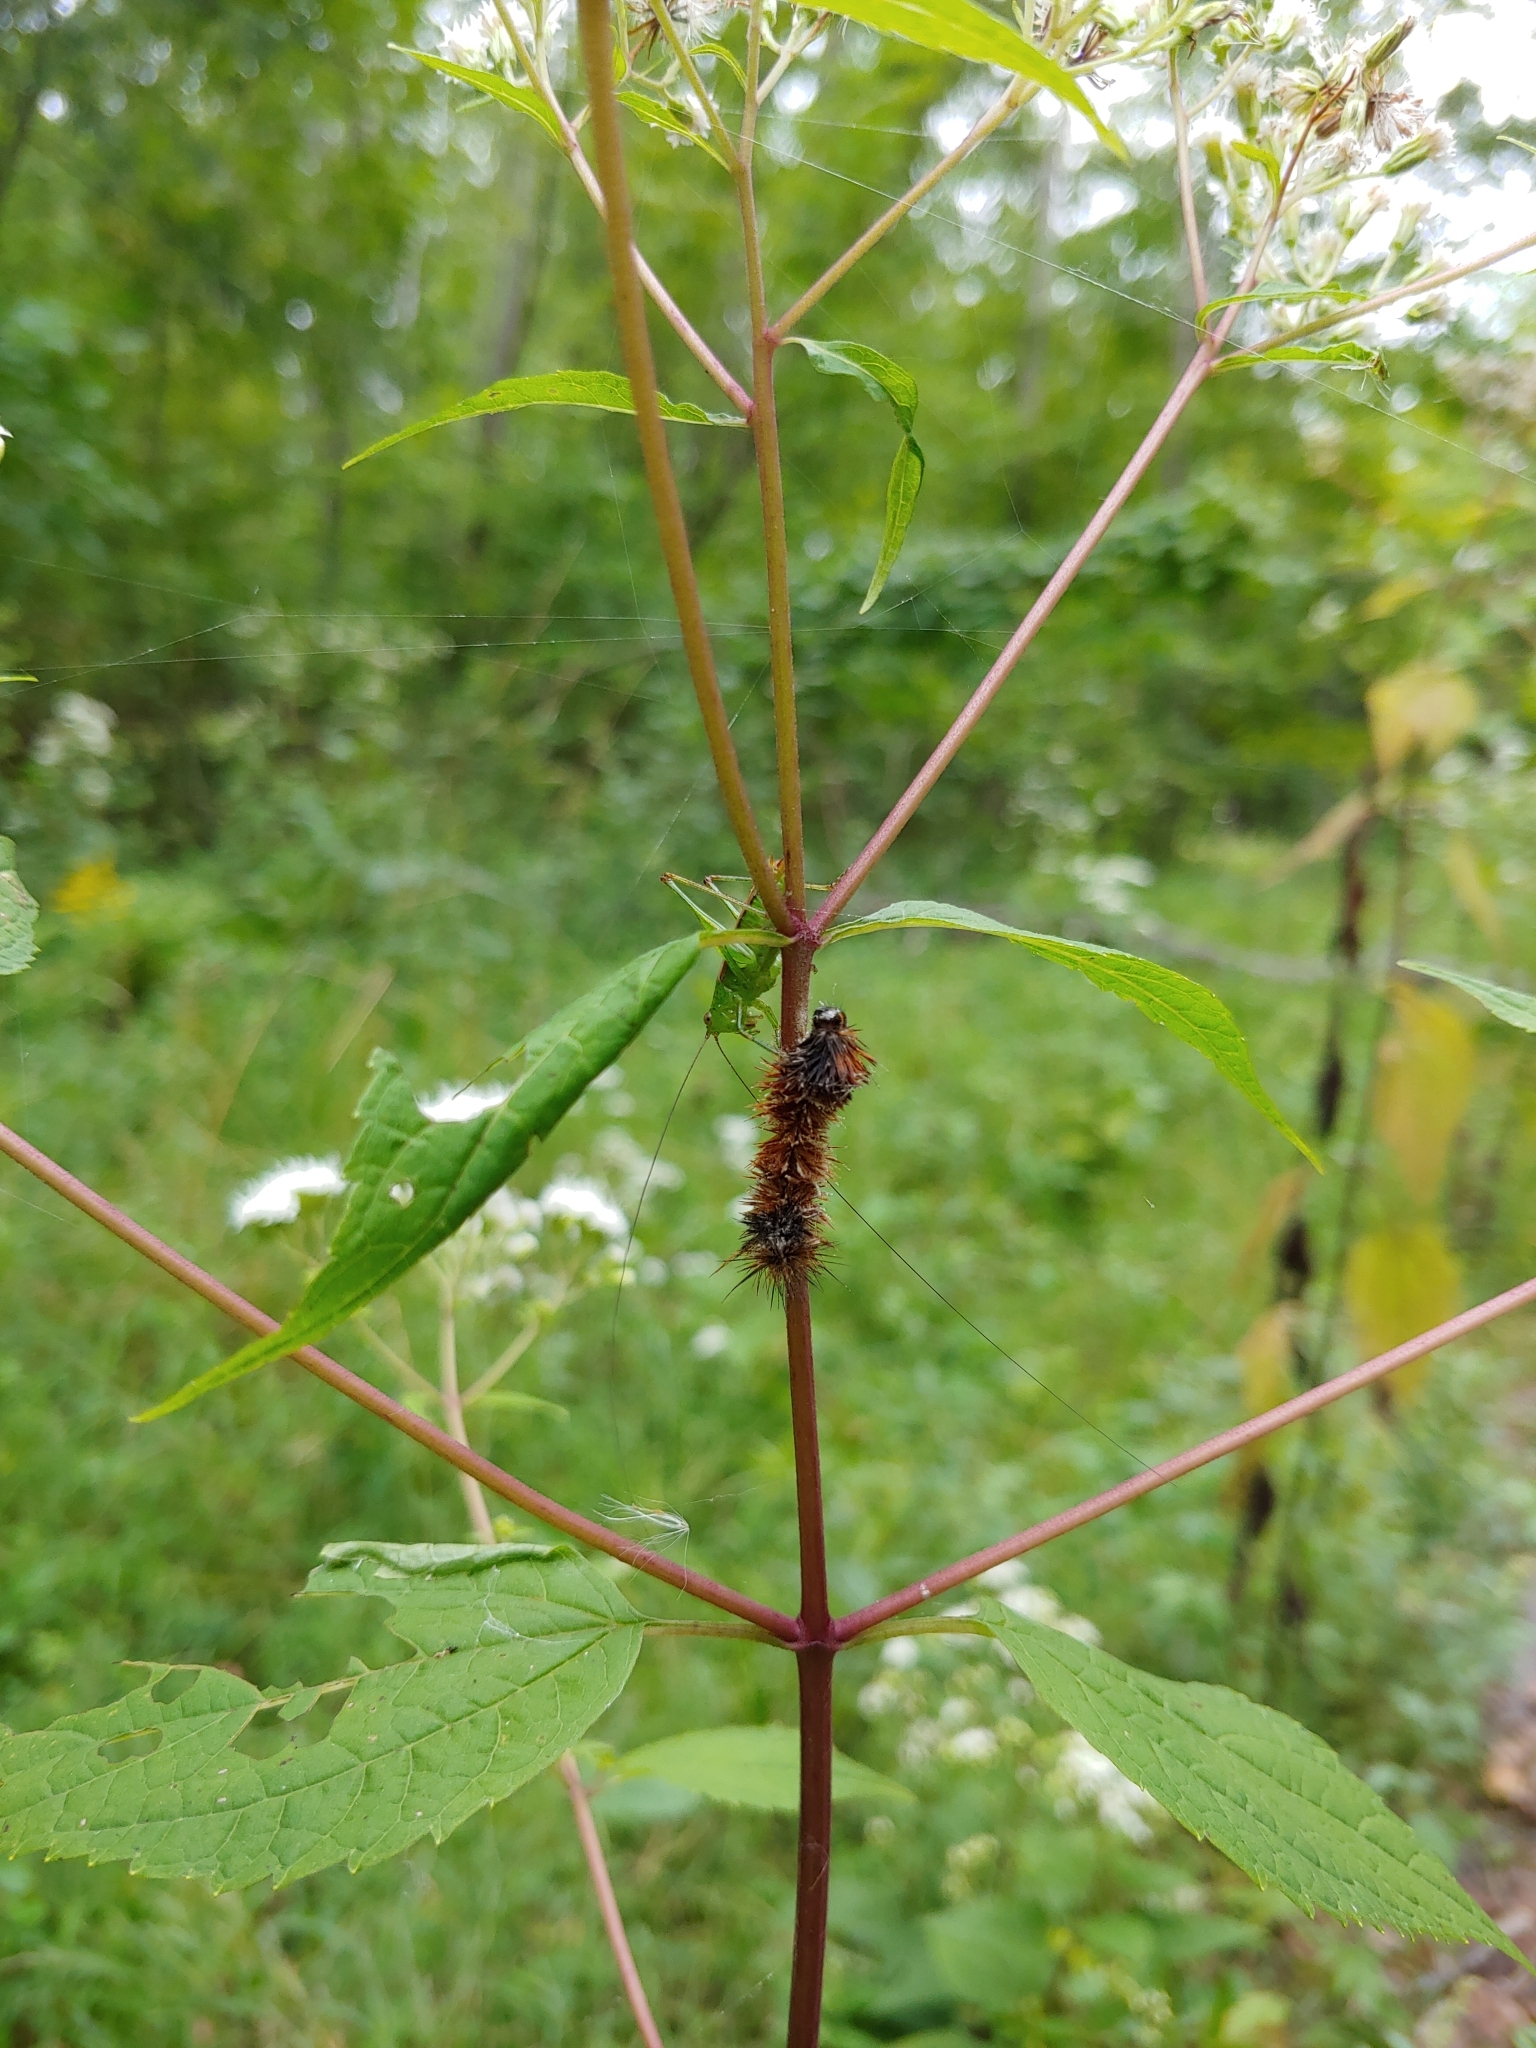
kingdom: Animalia
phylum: Arthropoda
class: Insecta
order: Orthoptera
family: Tettigoniidae
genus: Conocephalus
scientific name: Conocephalus brevipennis
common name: Short-winged meadow katydid
